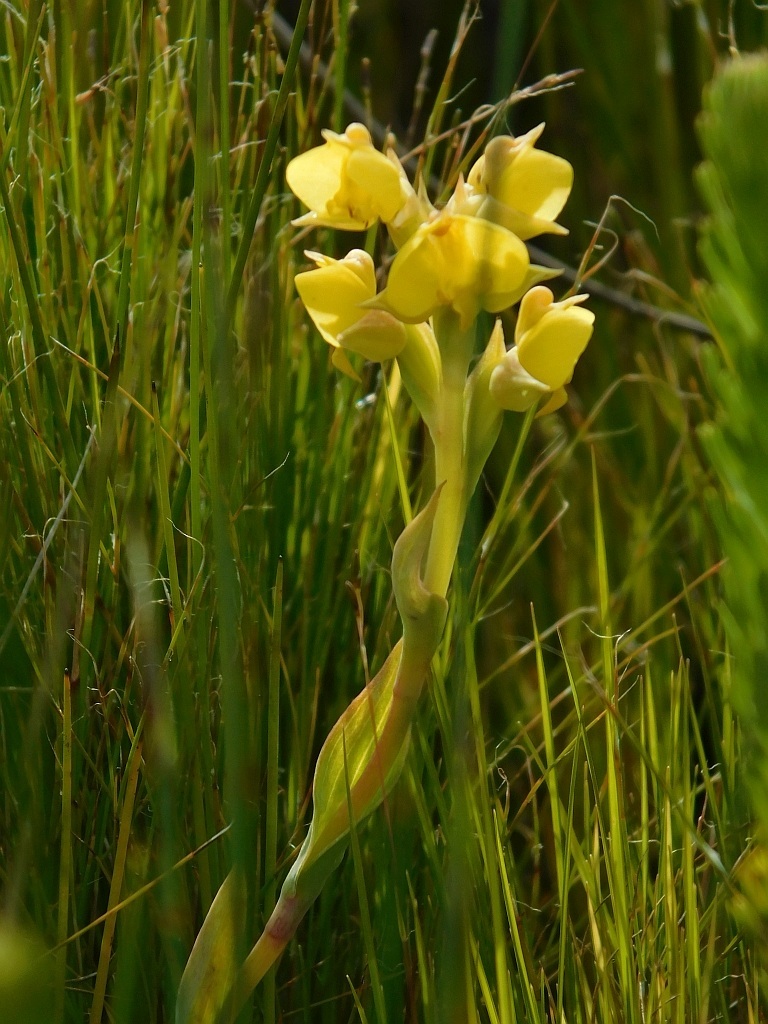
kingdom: Plantae
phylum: Tracheophyta
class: Liliopsida
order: Asparagales
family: Orchidaceae
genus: Pterygodium
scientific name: Pterygodium acutifolium
